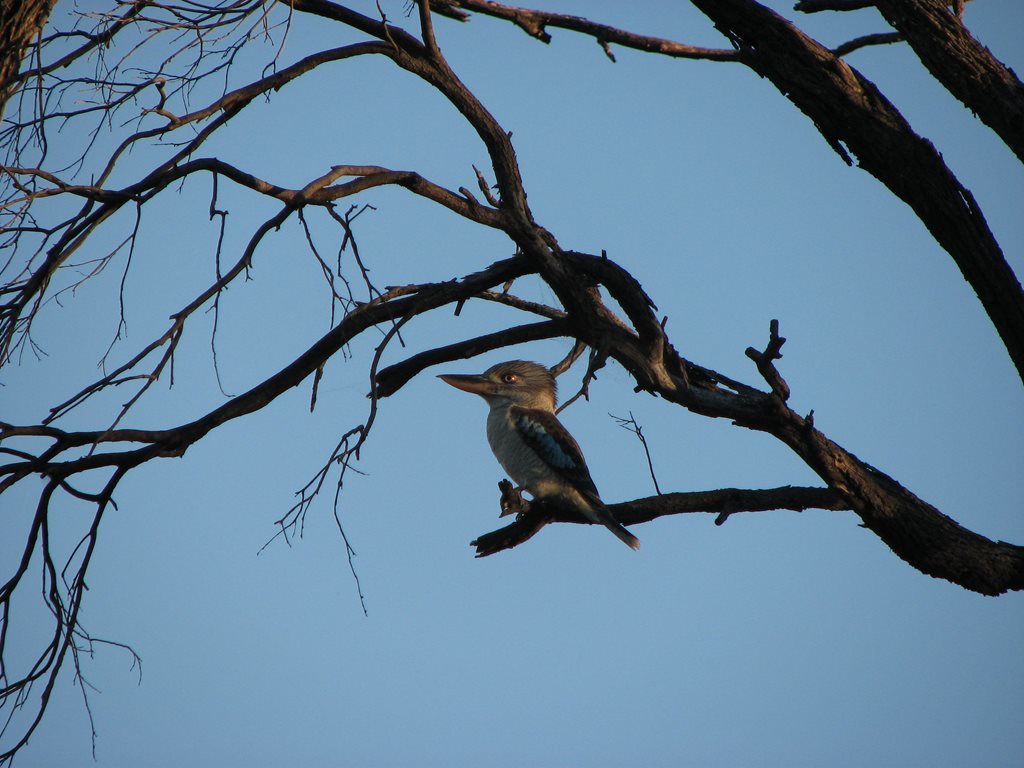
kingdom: Animalia
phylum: Chordata
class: Aves
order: Coraciiformes
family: Alcedinidae
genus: Dacelo
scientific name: Dacelo leachii
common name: Blue-winged kookaburra
